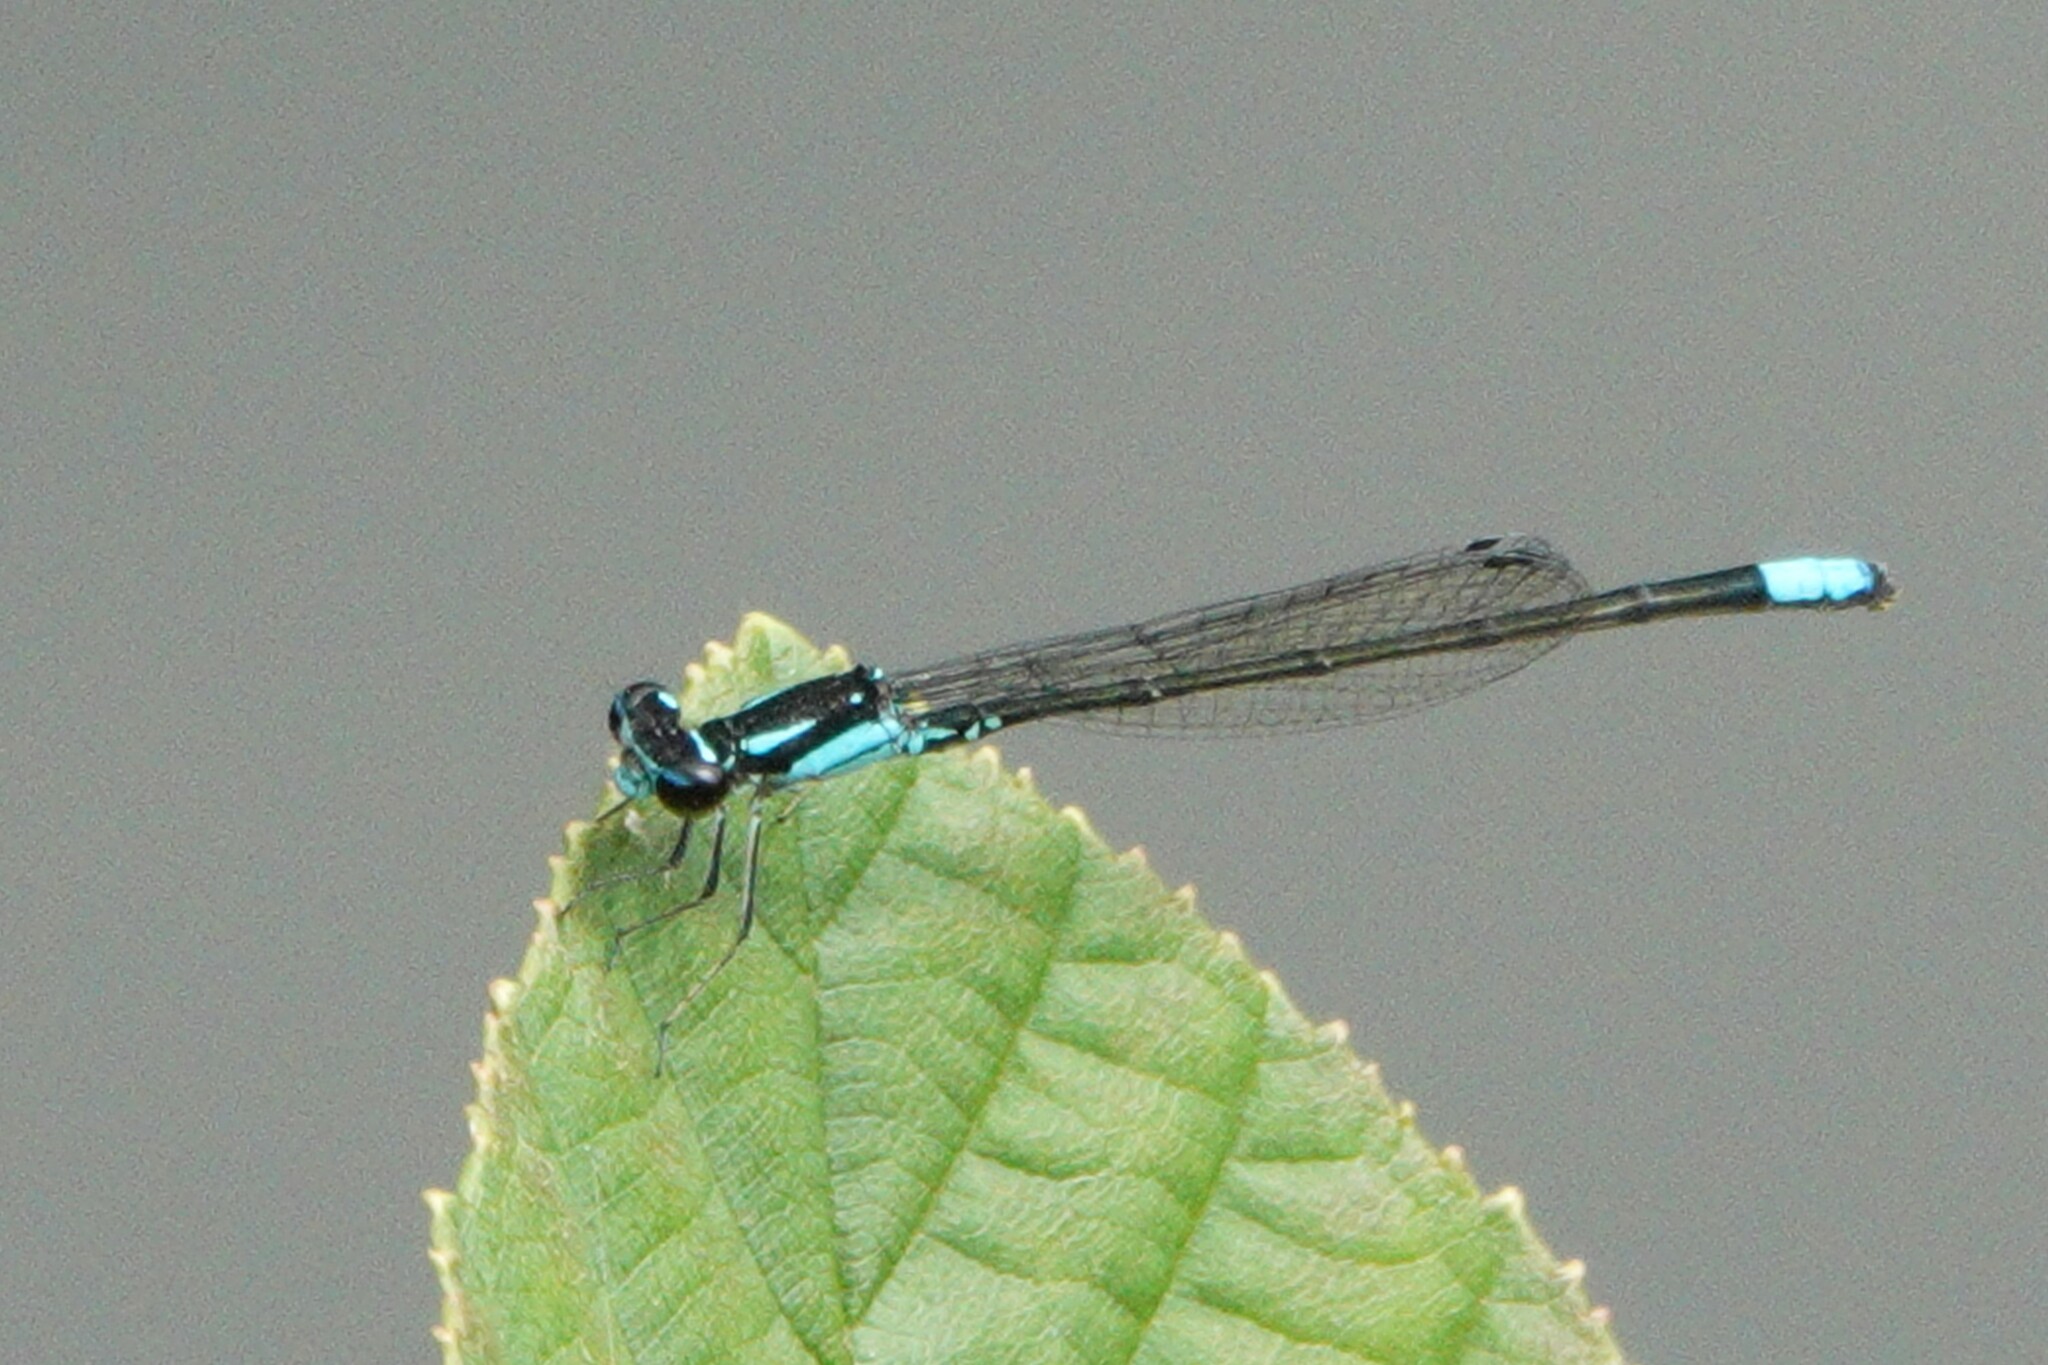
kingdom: Animalia
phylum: Arthropoda
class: Insecta
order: Odonata
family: Coenagrionidae
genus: Enallagma
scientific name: Enallagma geminatum
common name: Skimming bluet
